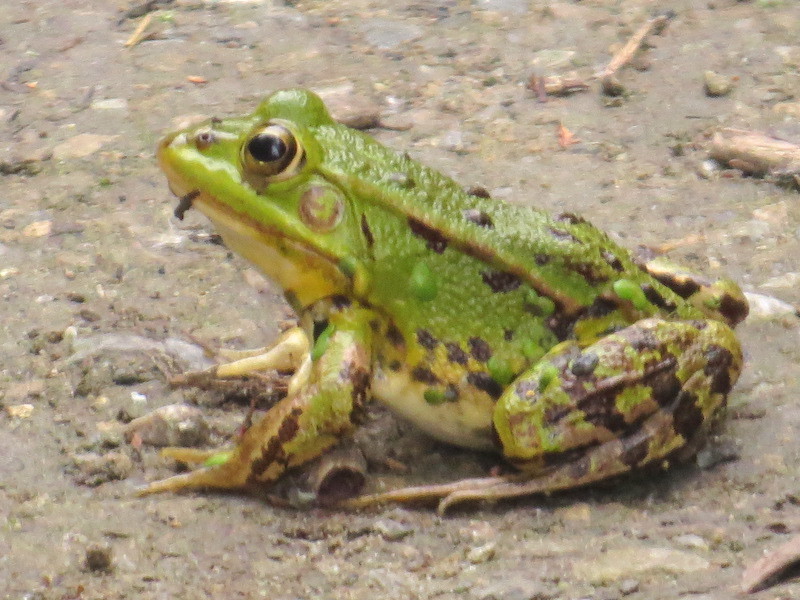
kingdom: Animalia
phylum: Chordata
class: Amphibia
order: Anura
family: Ranidae
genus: Pelophylax
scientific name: Pelophylax
